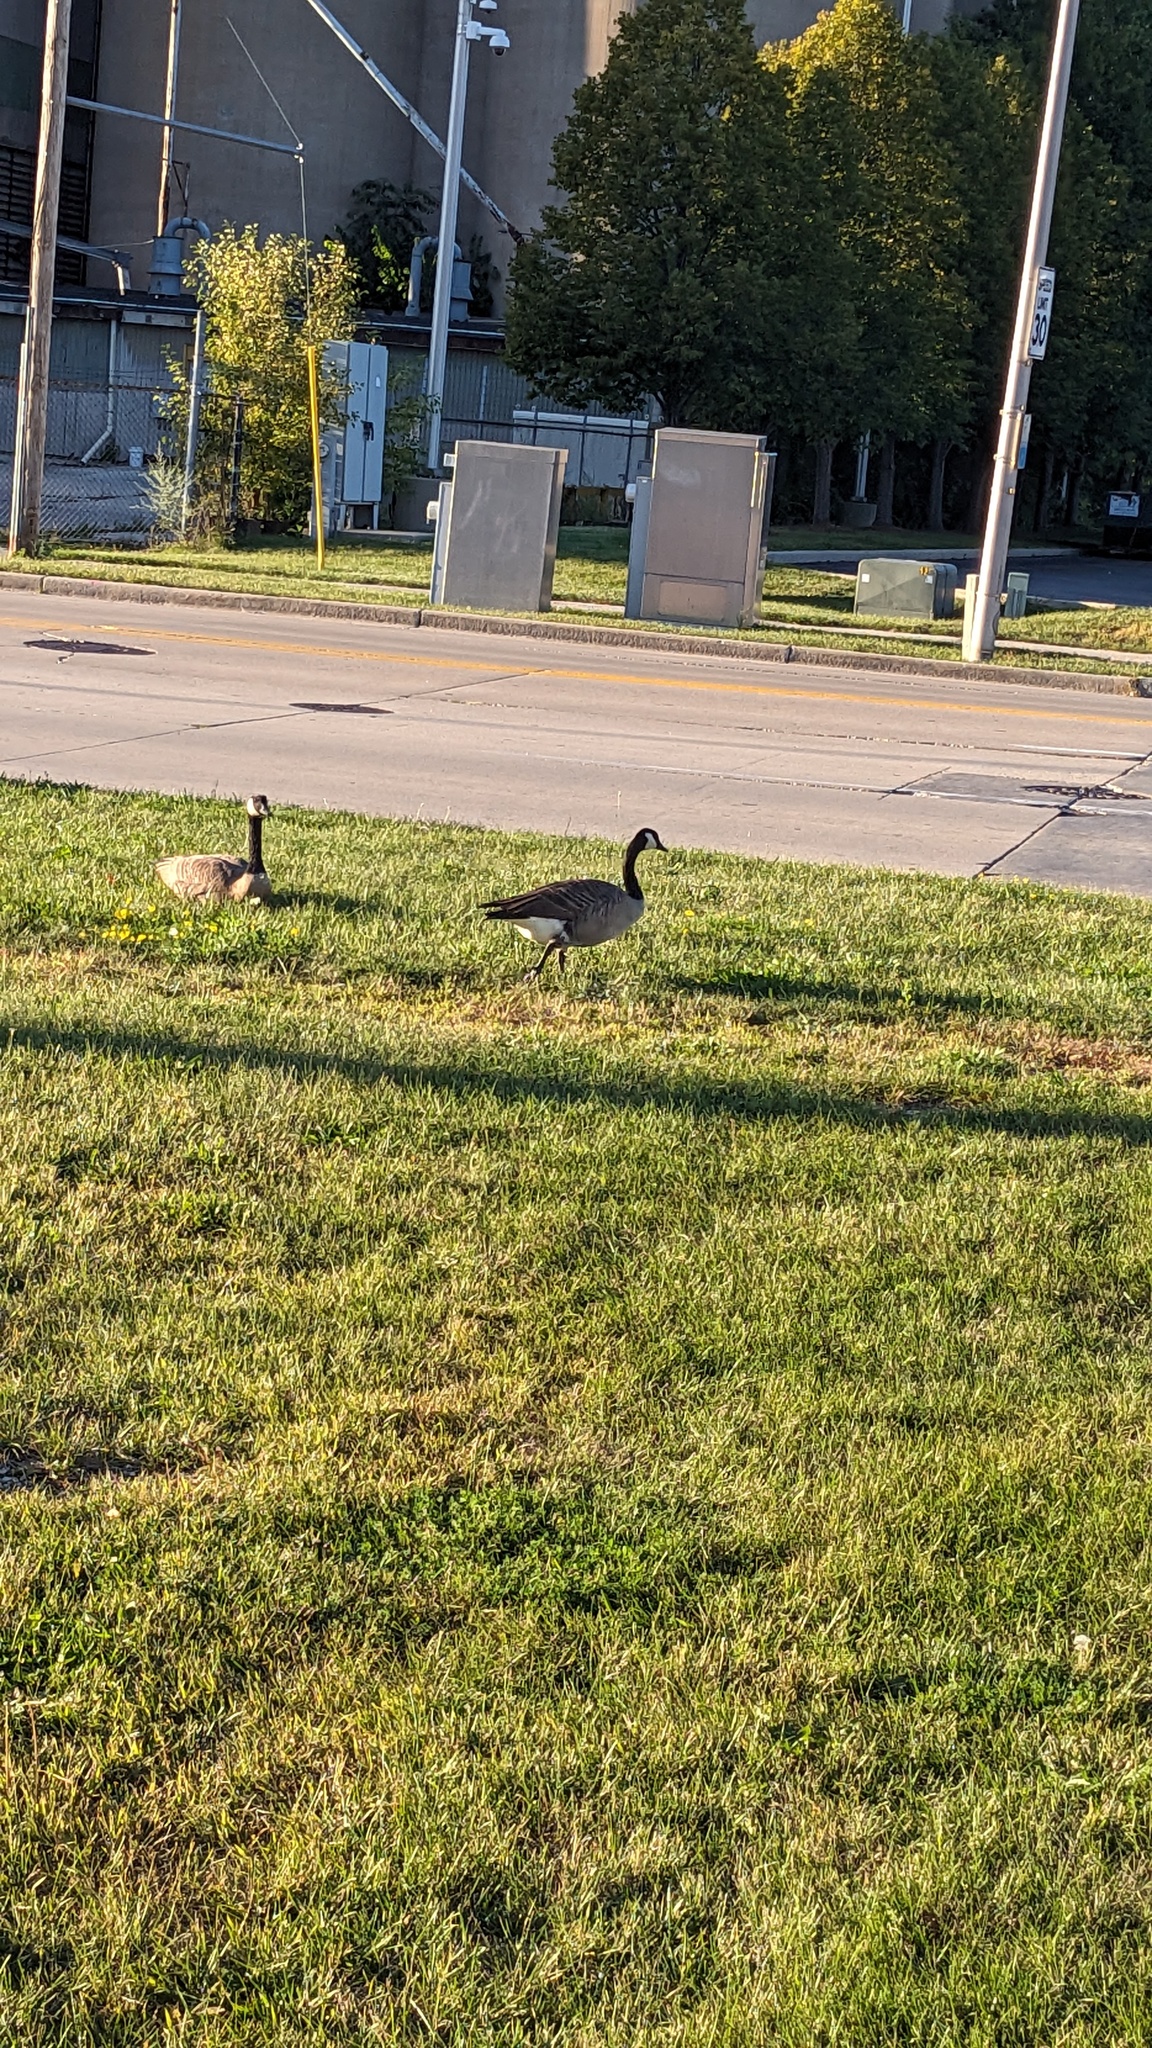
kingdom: Animalia
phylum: Chordata
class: Aves
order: Anseriformes
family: Anatidae
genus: Branta
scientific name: Branta canadensis
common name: Canada goose
